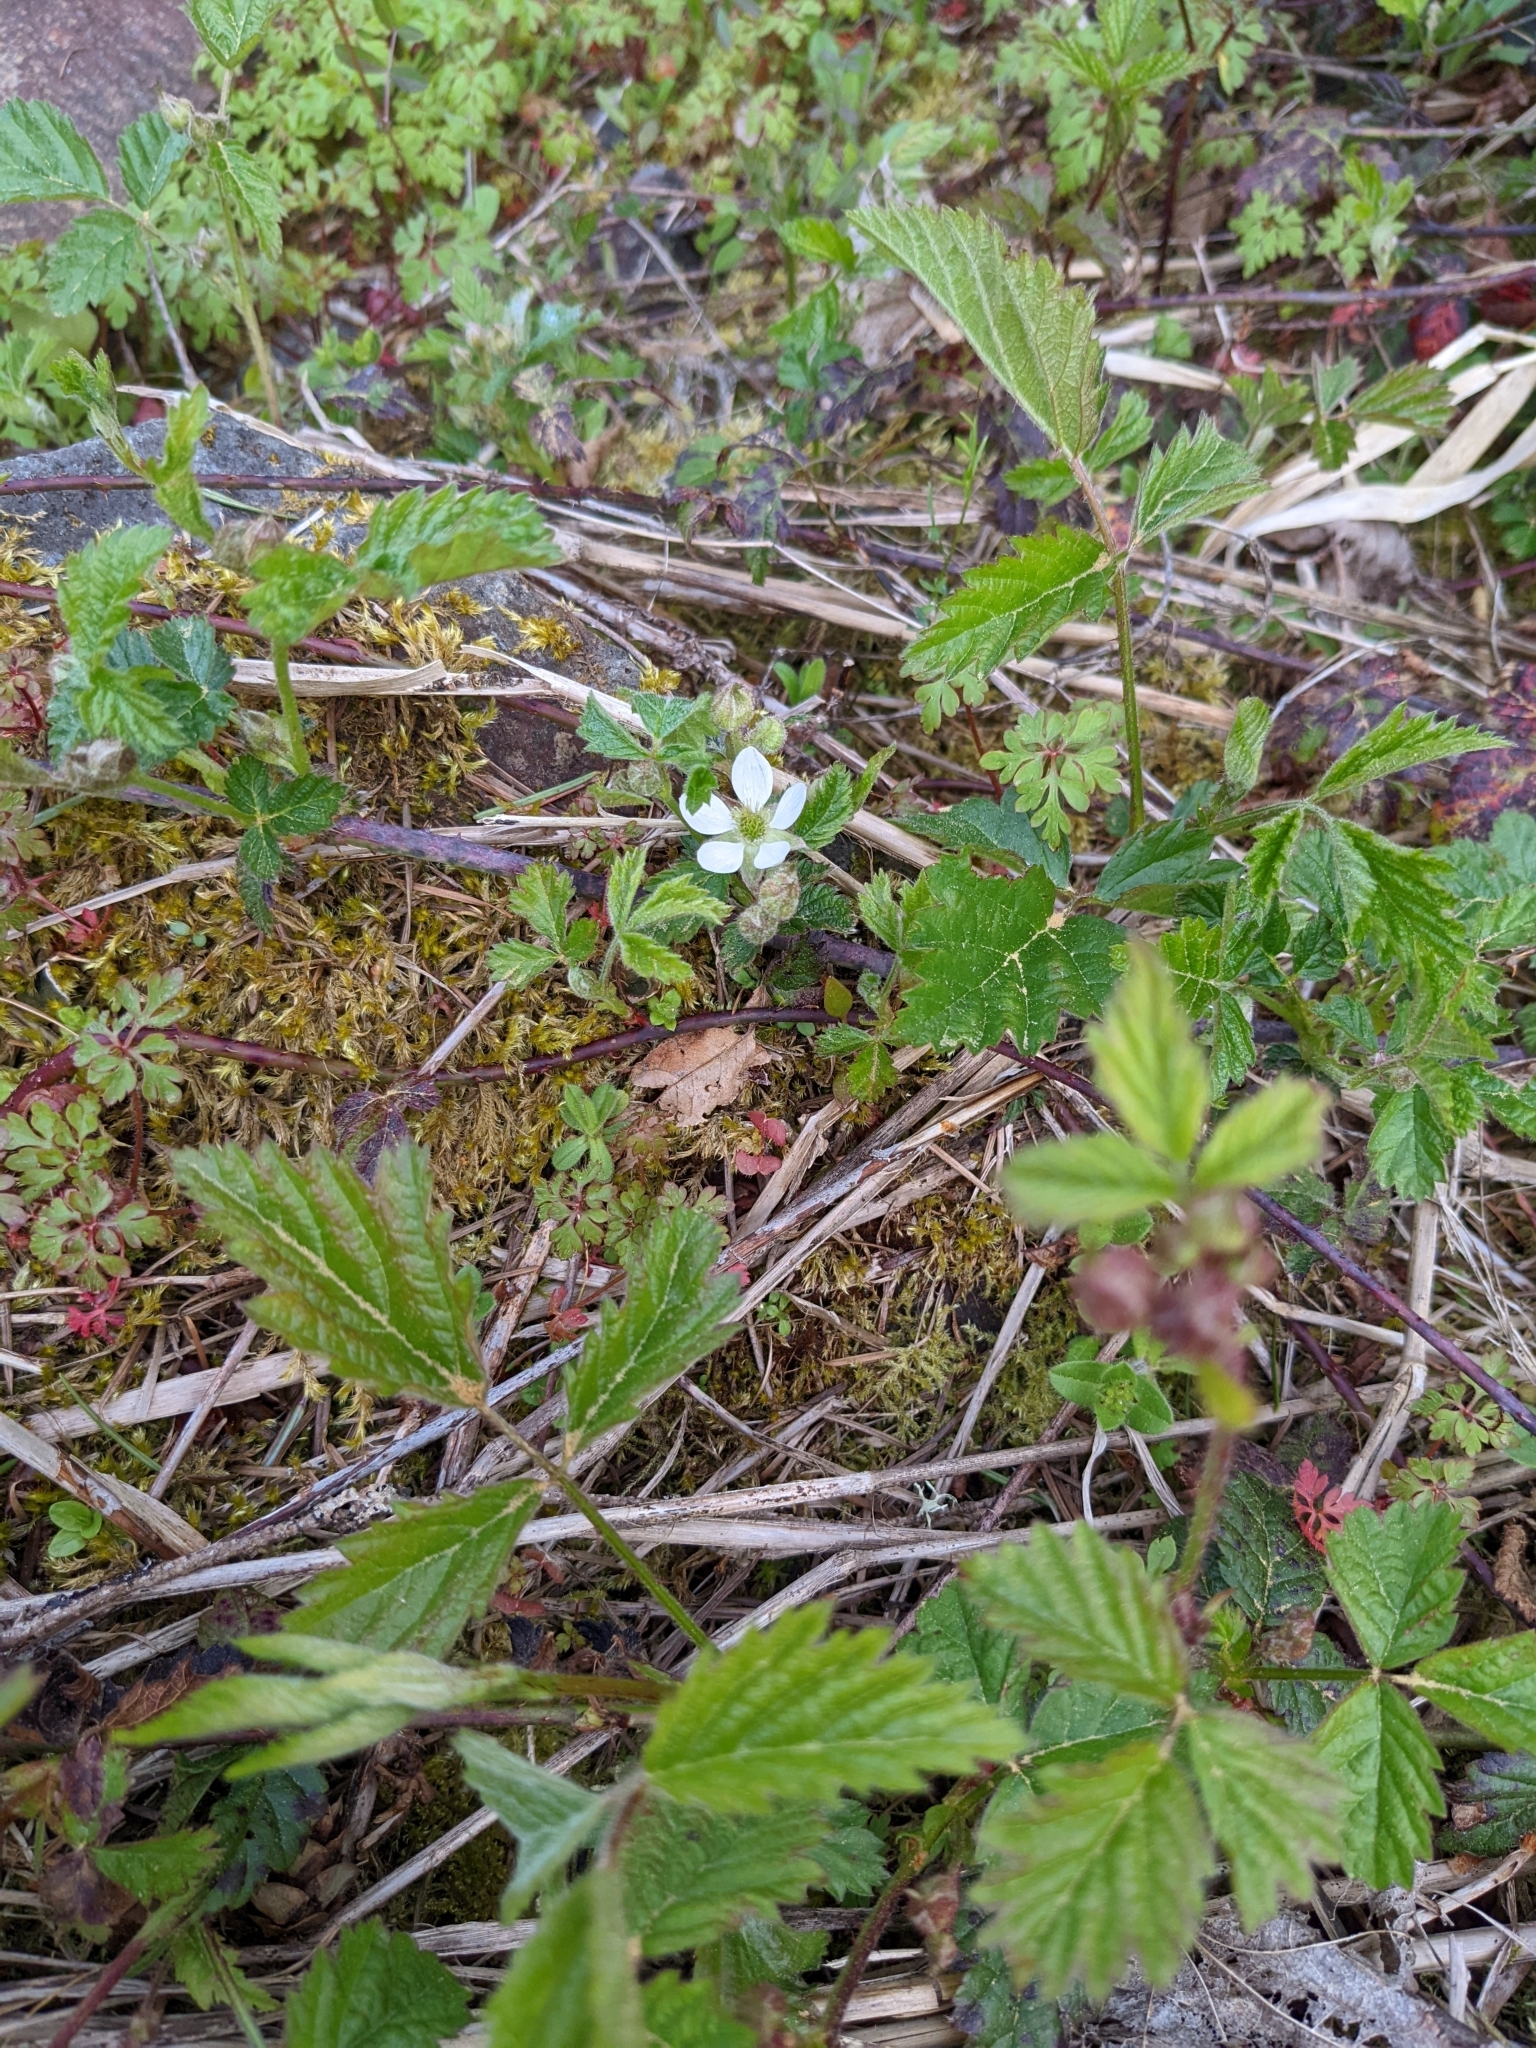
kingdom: Plantae
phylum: Tracheophyta
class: Magnoliopsida
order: Rosales
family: Rosaceae
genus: Rubus
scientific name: Rubus ursinus
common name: Pacific blackberry
